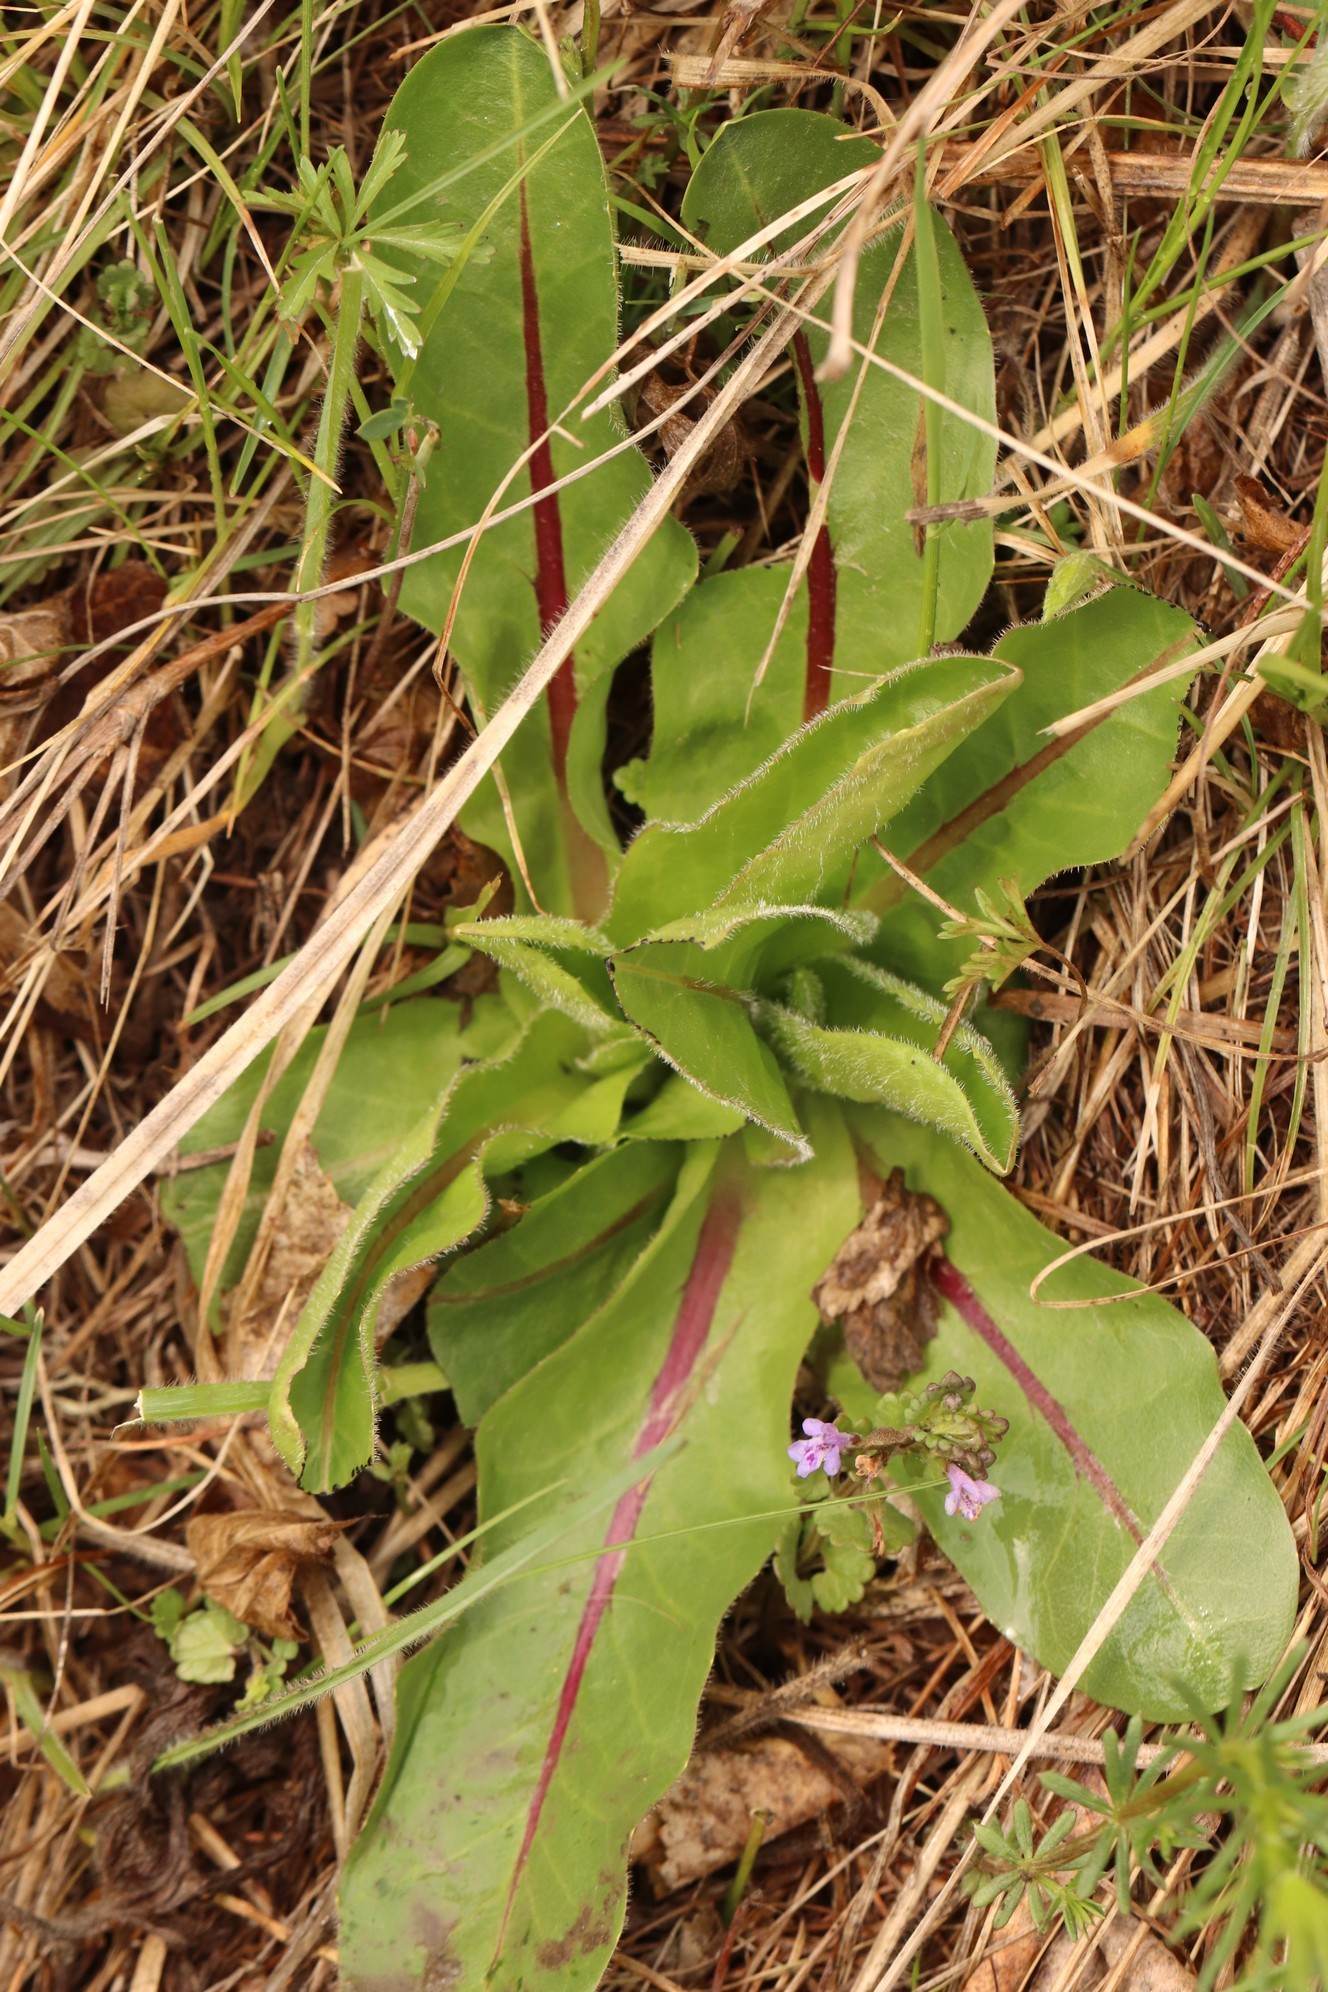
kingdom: Plantae
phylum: Tracheophyta
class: Magnoliopsida
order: Asterales
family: Asteraceae
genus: Trommsdorffia
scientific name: Trommsdorffia maculata
